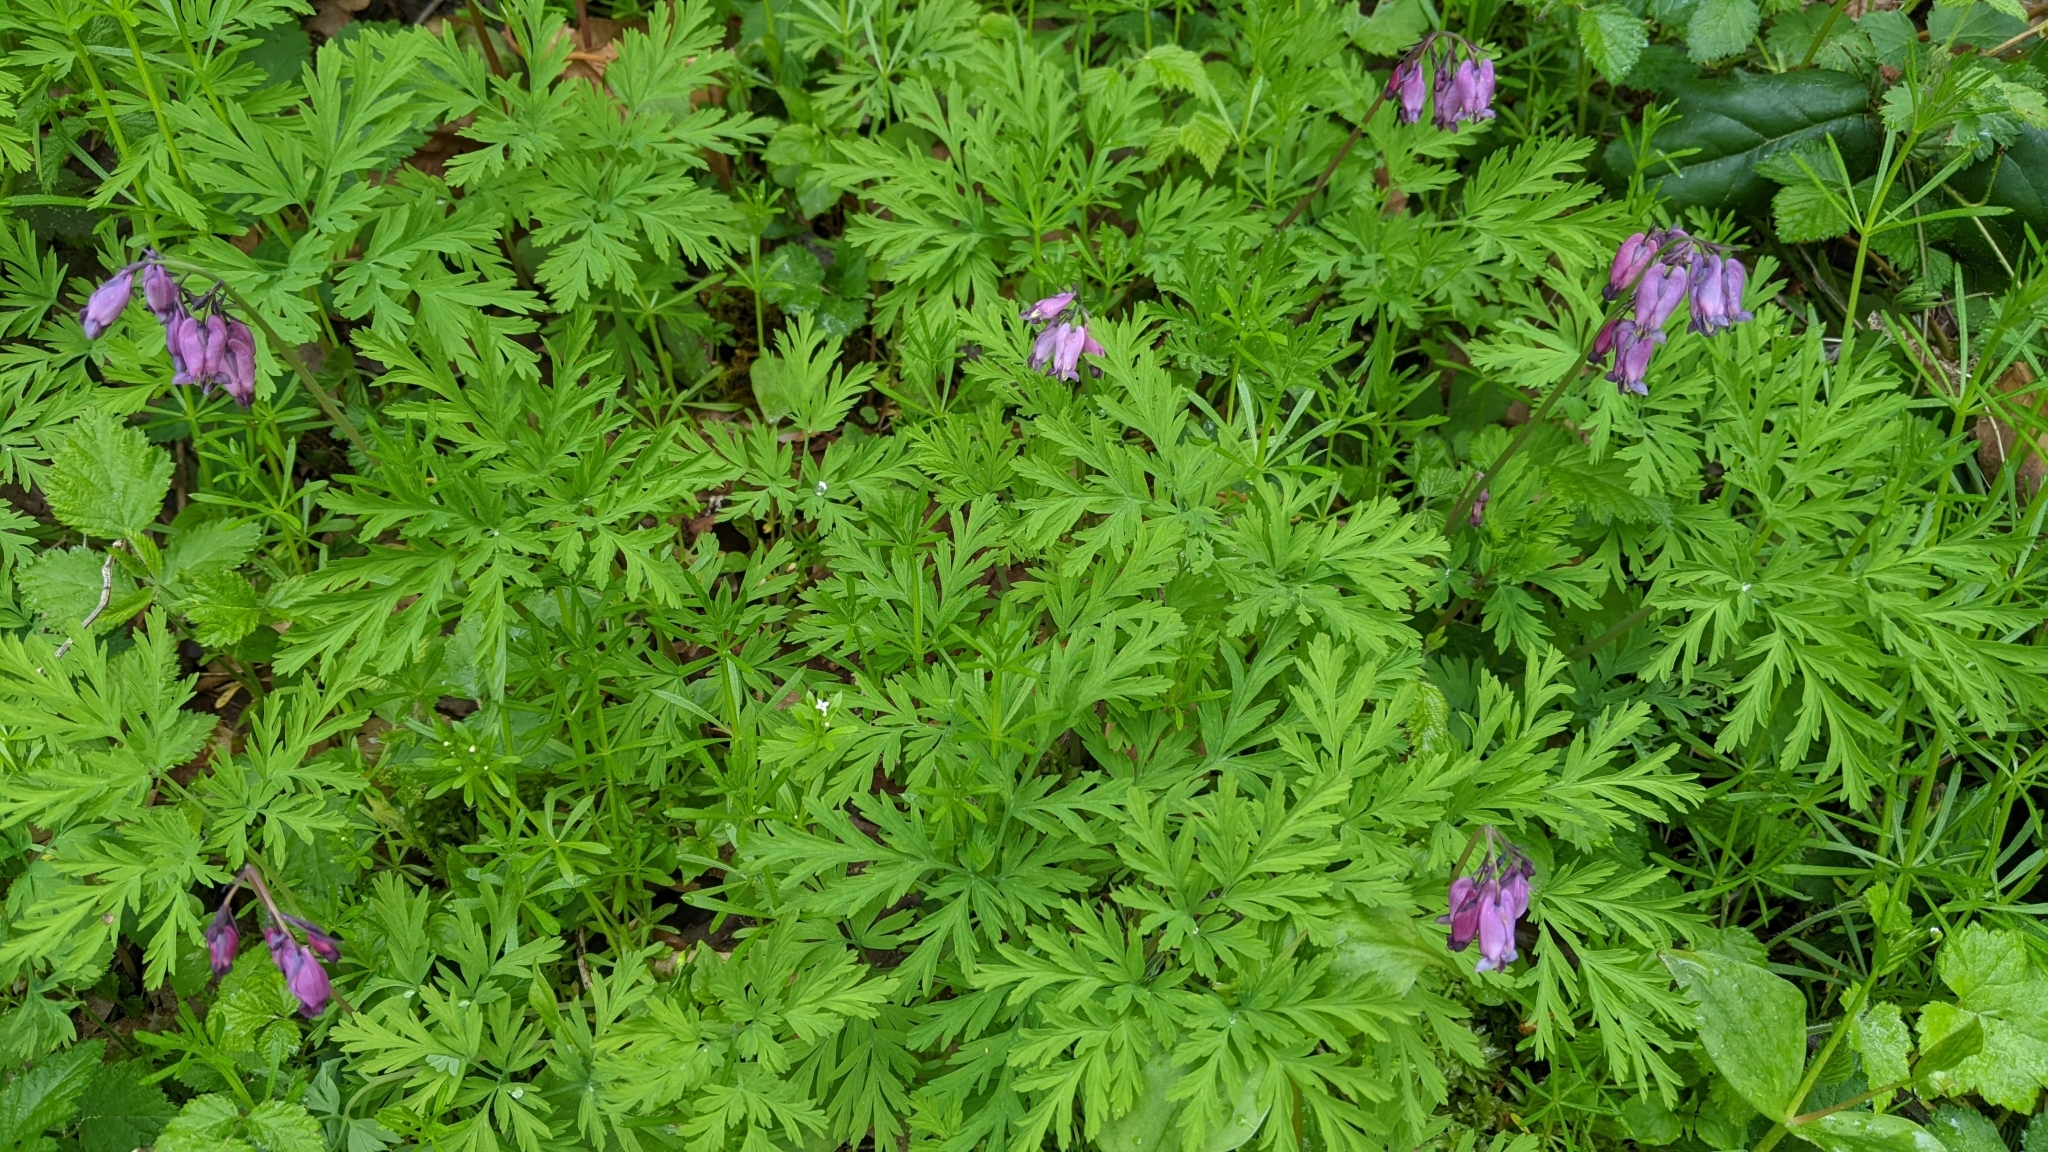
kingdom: Plantae
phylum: Tracheophyta
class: Magnoliopsida
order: Ranunculales
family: Papaveraceae
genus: Dicentra
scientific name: Dicentra formosa
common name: Bleeding-heart
